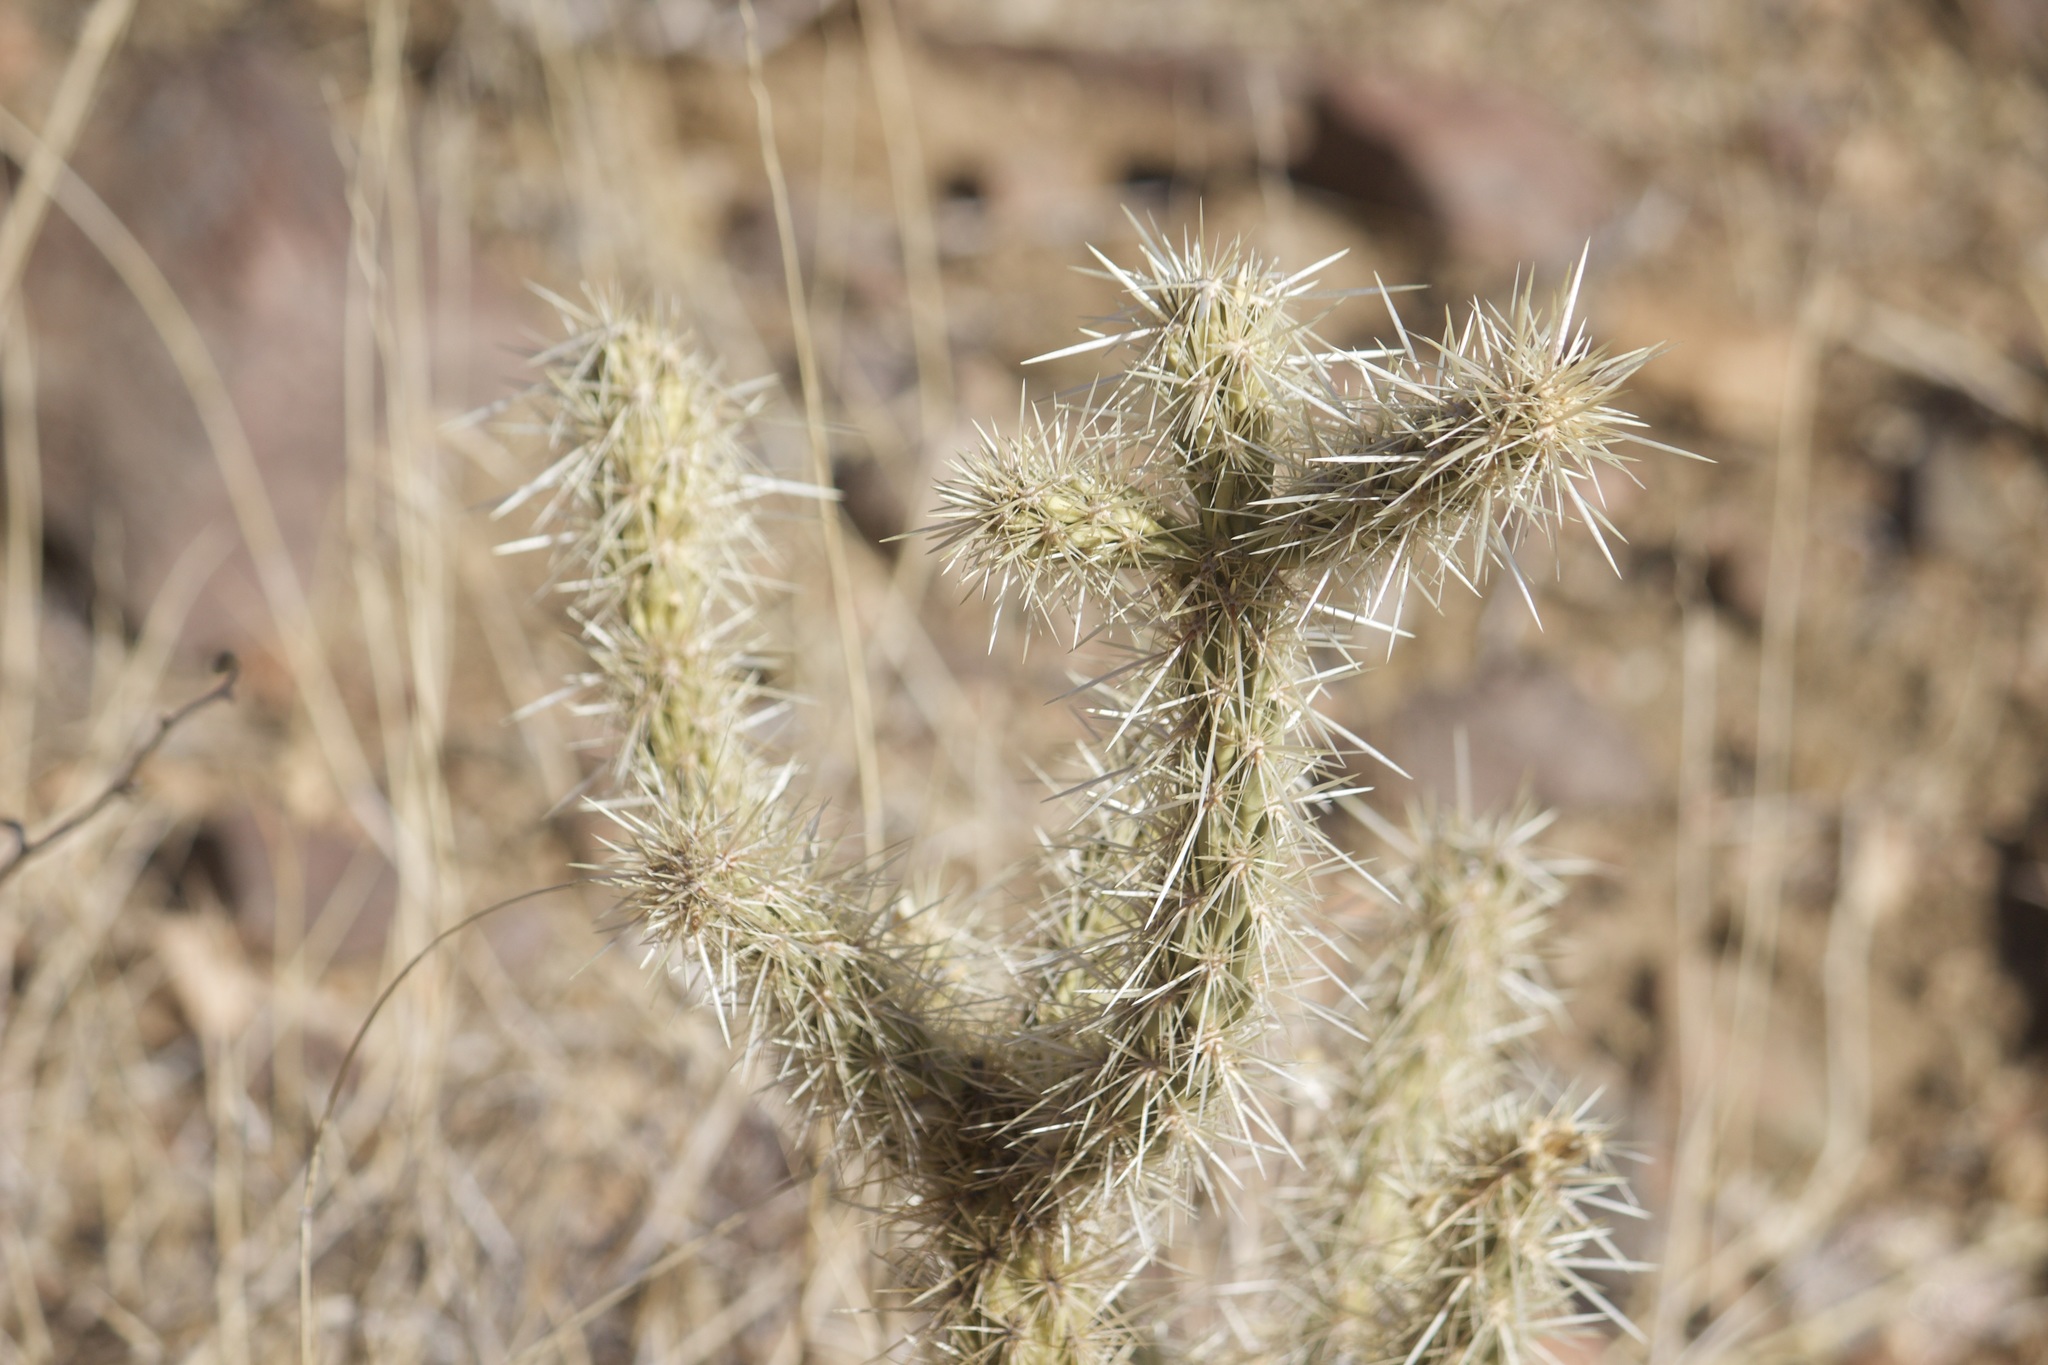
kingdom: Plantae
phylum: Tracheophyta
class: Magnoliopsida
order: Caryophyllales
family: Cactaceae
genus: Cylindropuntia
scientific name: Cylindropuntia acanthocarpa
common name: Buckhorn cholla
